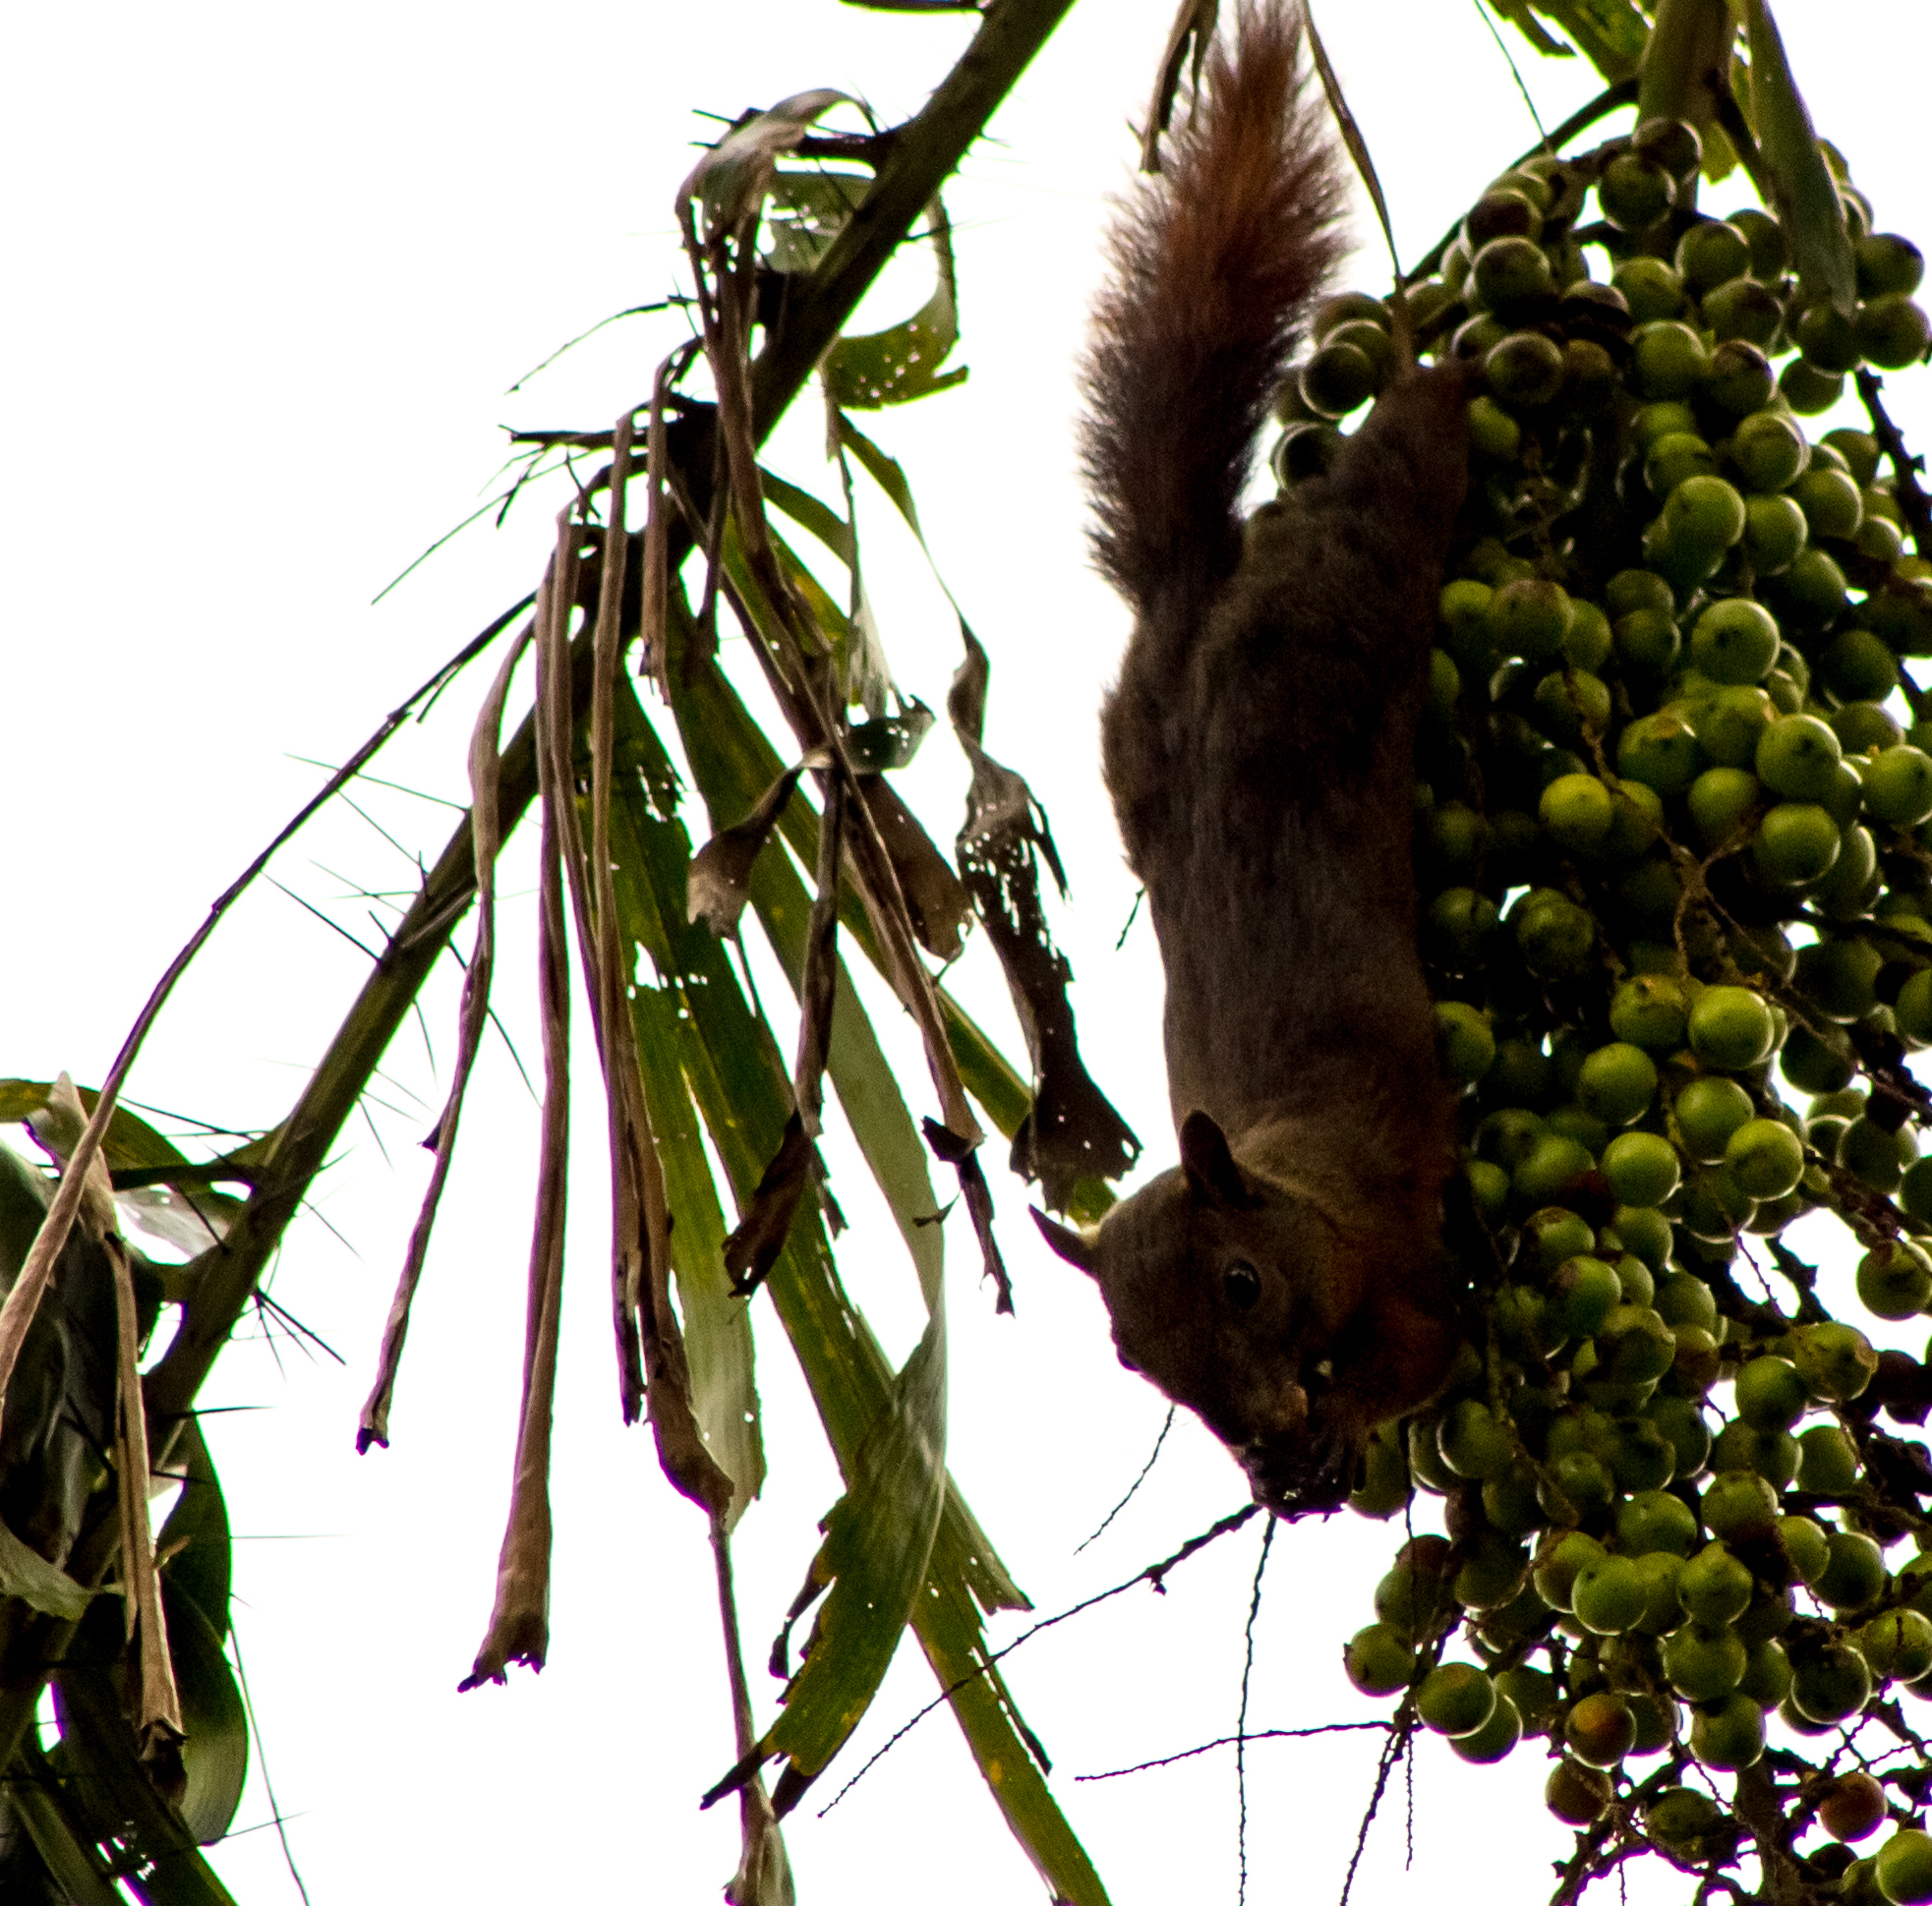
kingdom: Animalia
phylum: Chordata
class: Mammalia
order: Rodentia
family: Sciuridae
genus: Sciurus
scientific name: Sciurus granatensis
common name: Red-tailed squirrel
